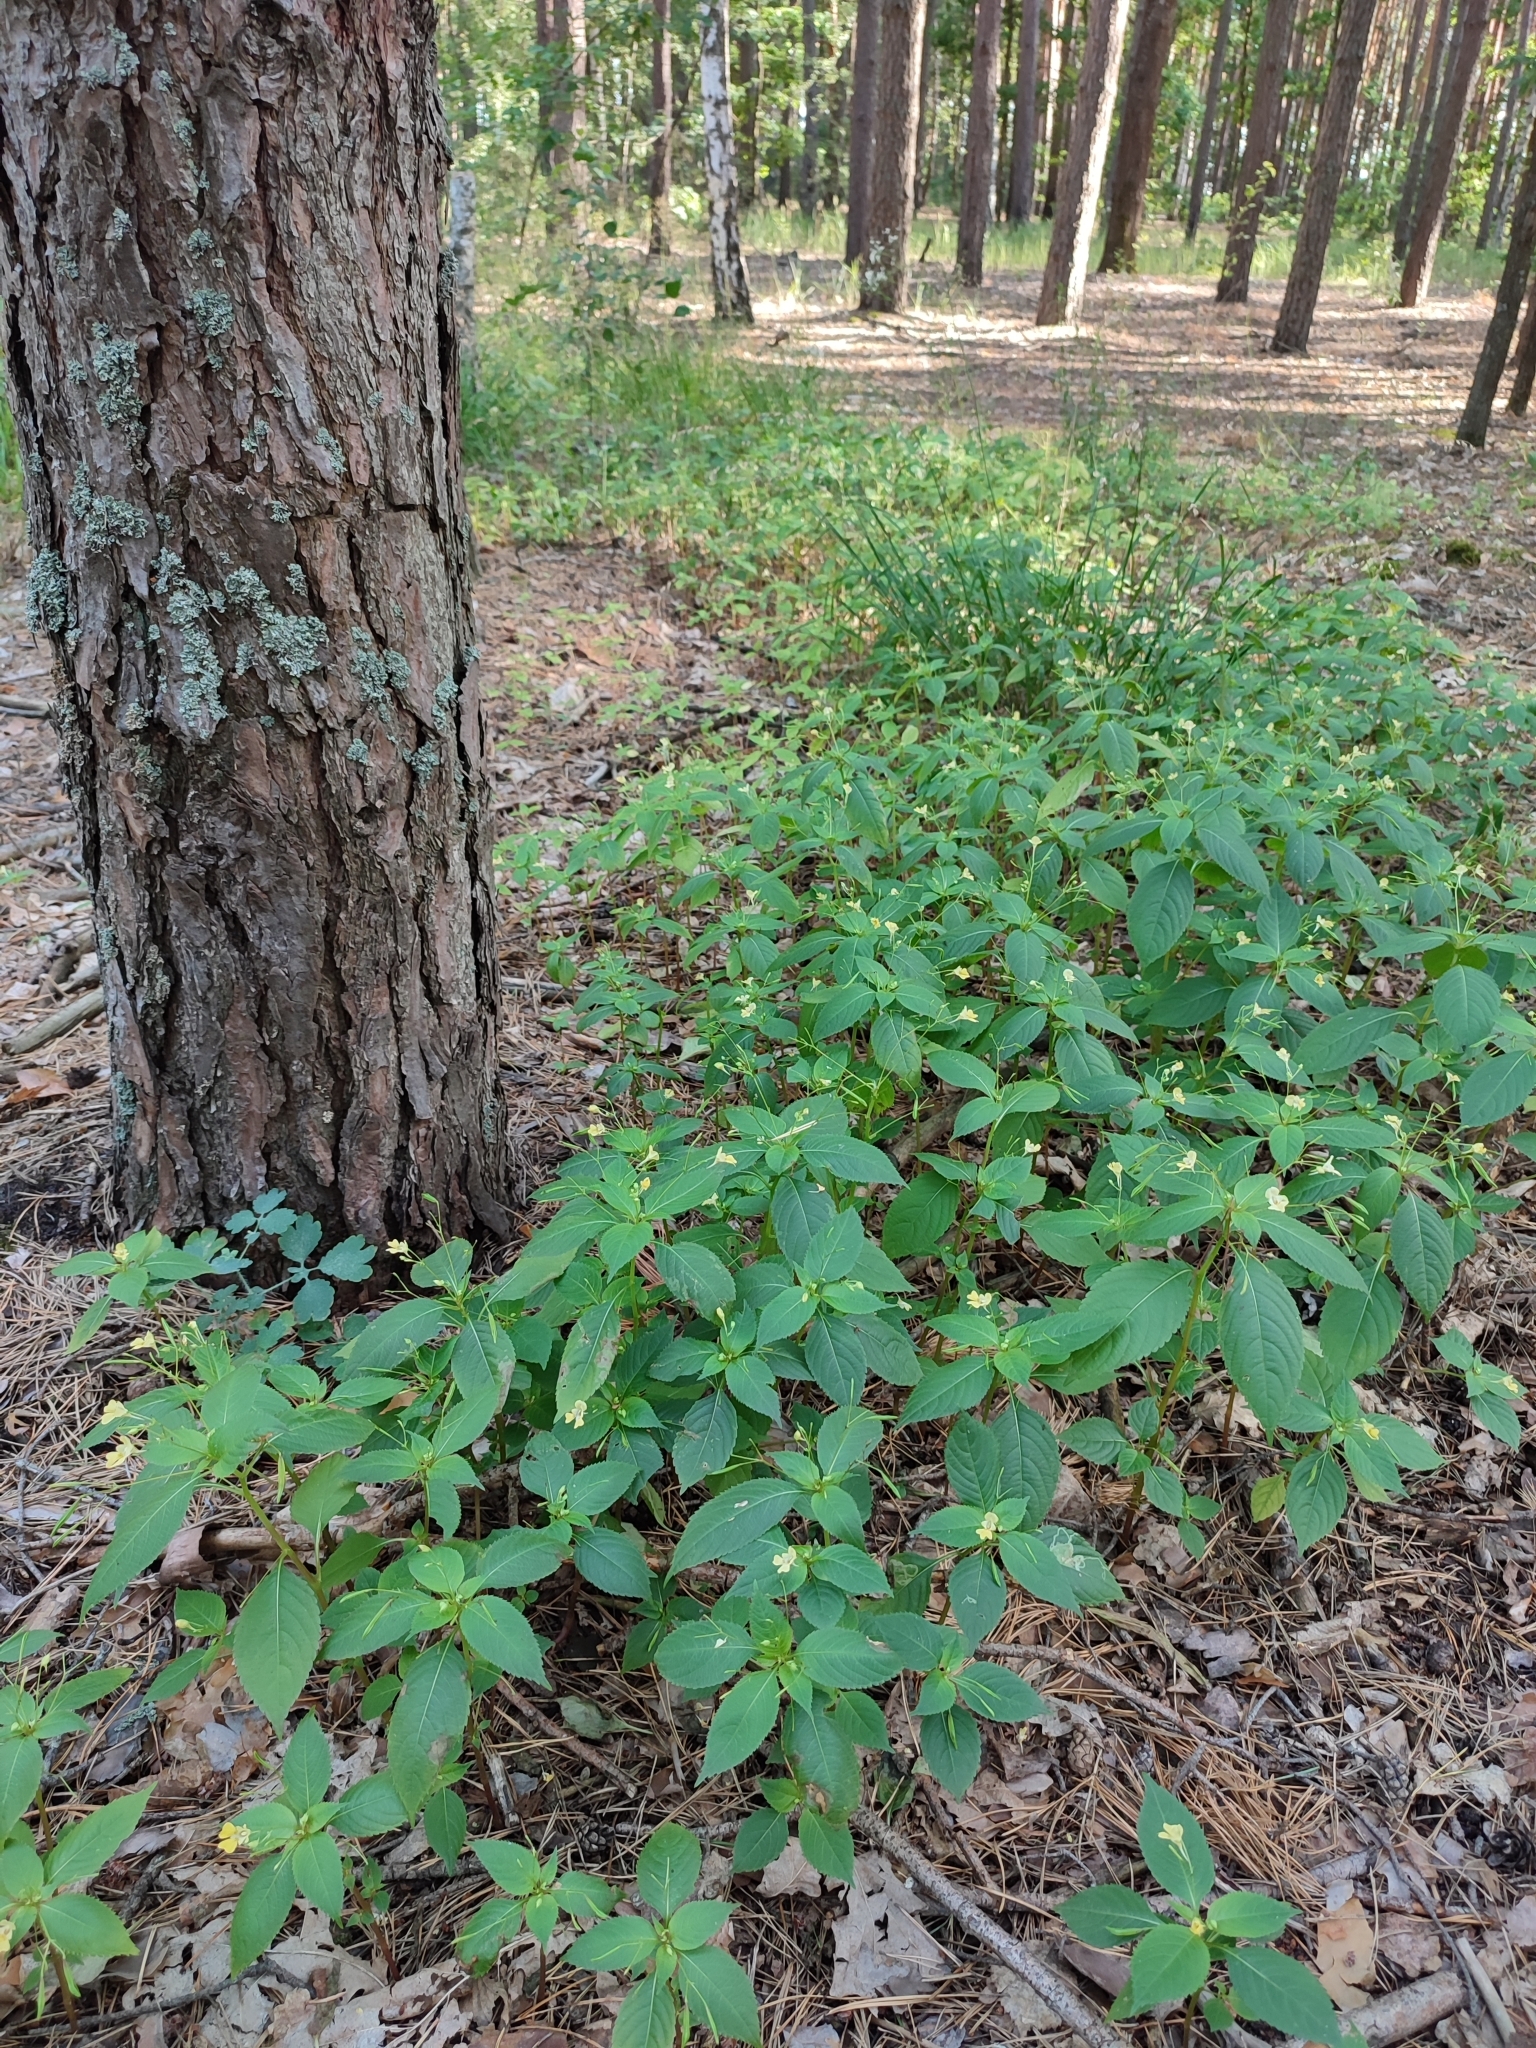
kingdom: Plantae
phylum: Tracheophyta
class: Magnoliopsida
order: Ericales
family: Balsaminaceae
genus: Impatiens
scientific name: Impatiens parviflora
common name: Small balsam
